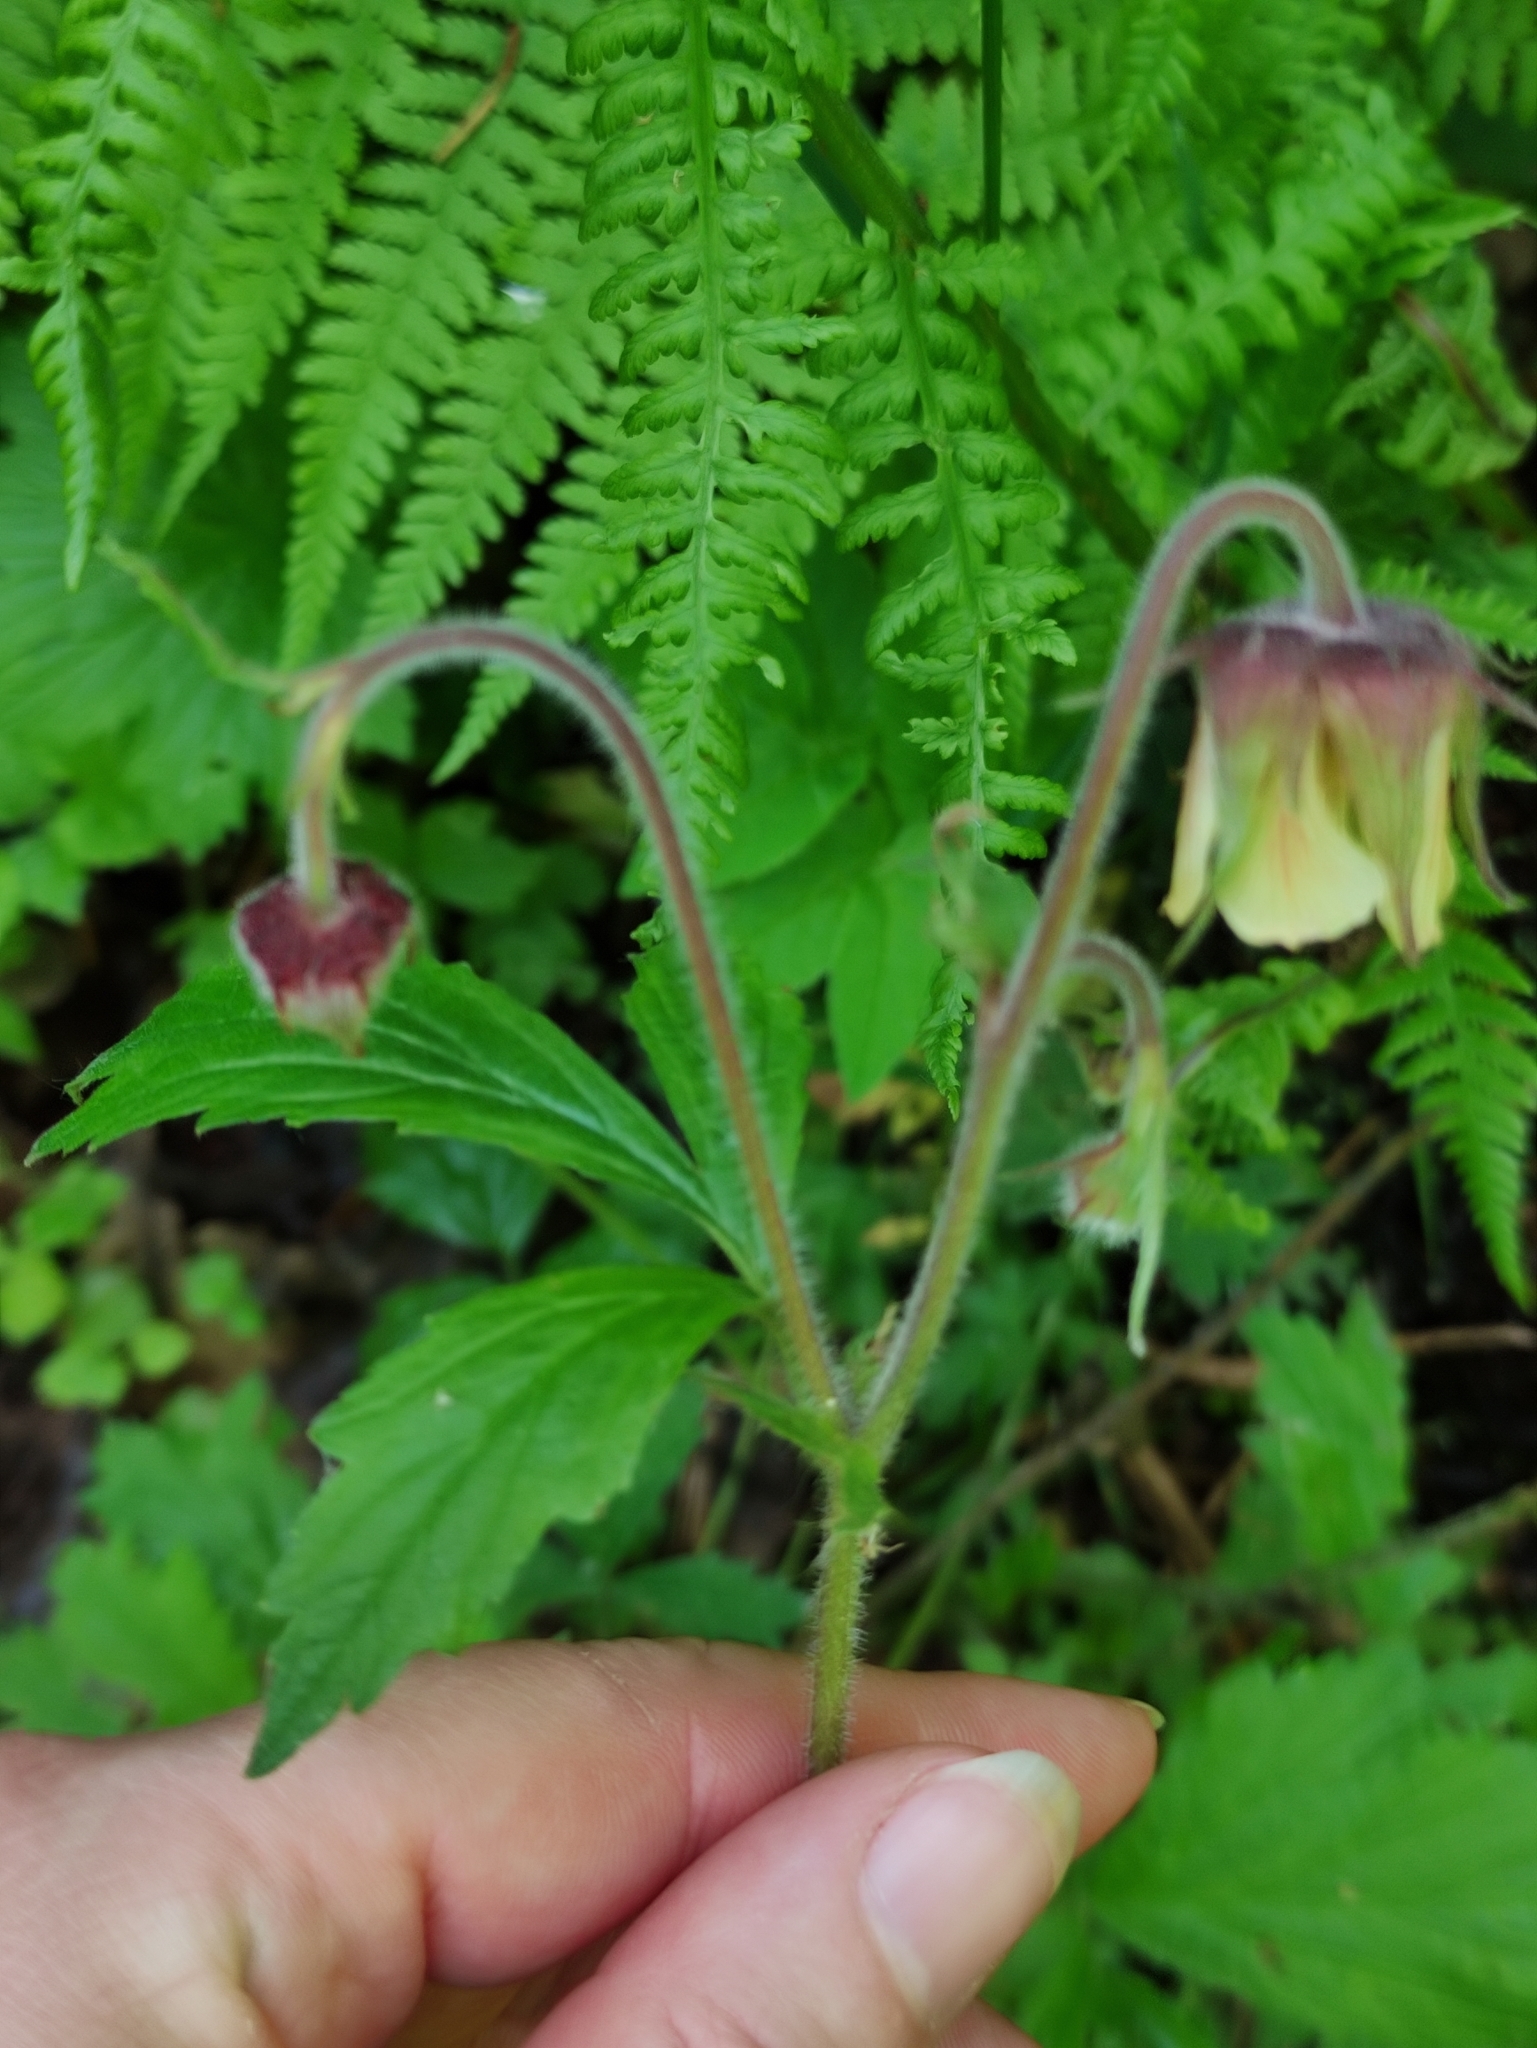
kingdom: Plantae
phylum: Tracheophyta
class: Magnoliopsida
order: Rosales
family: Rosaceae
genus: Geum
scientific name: Geum rivale
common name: Water avens
